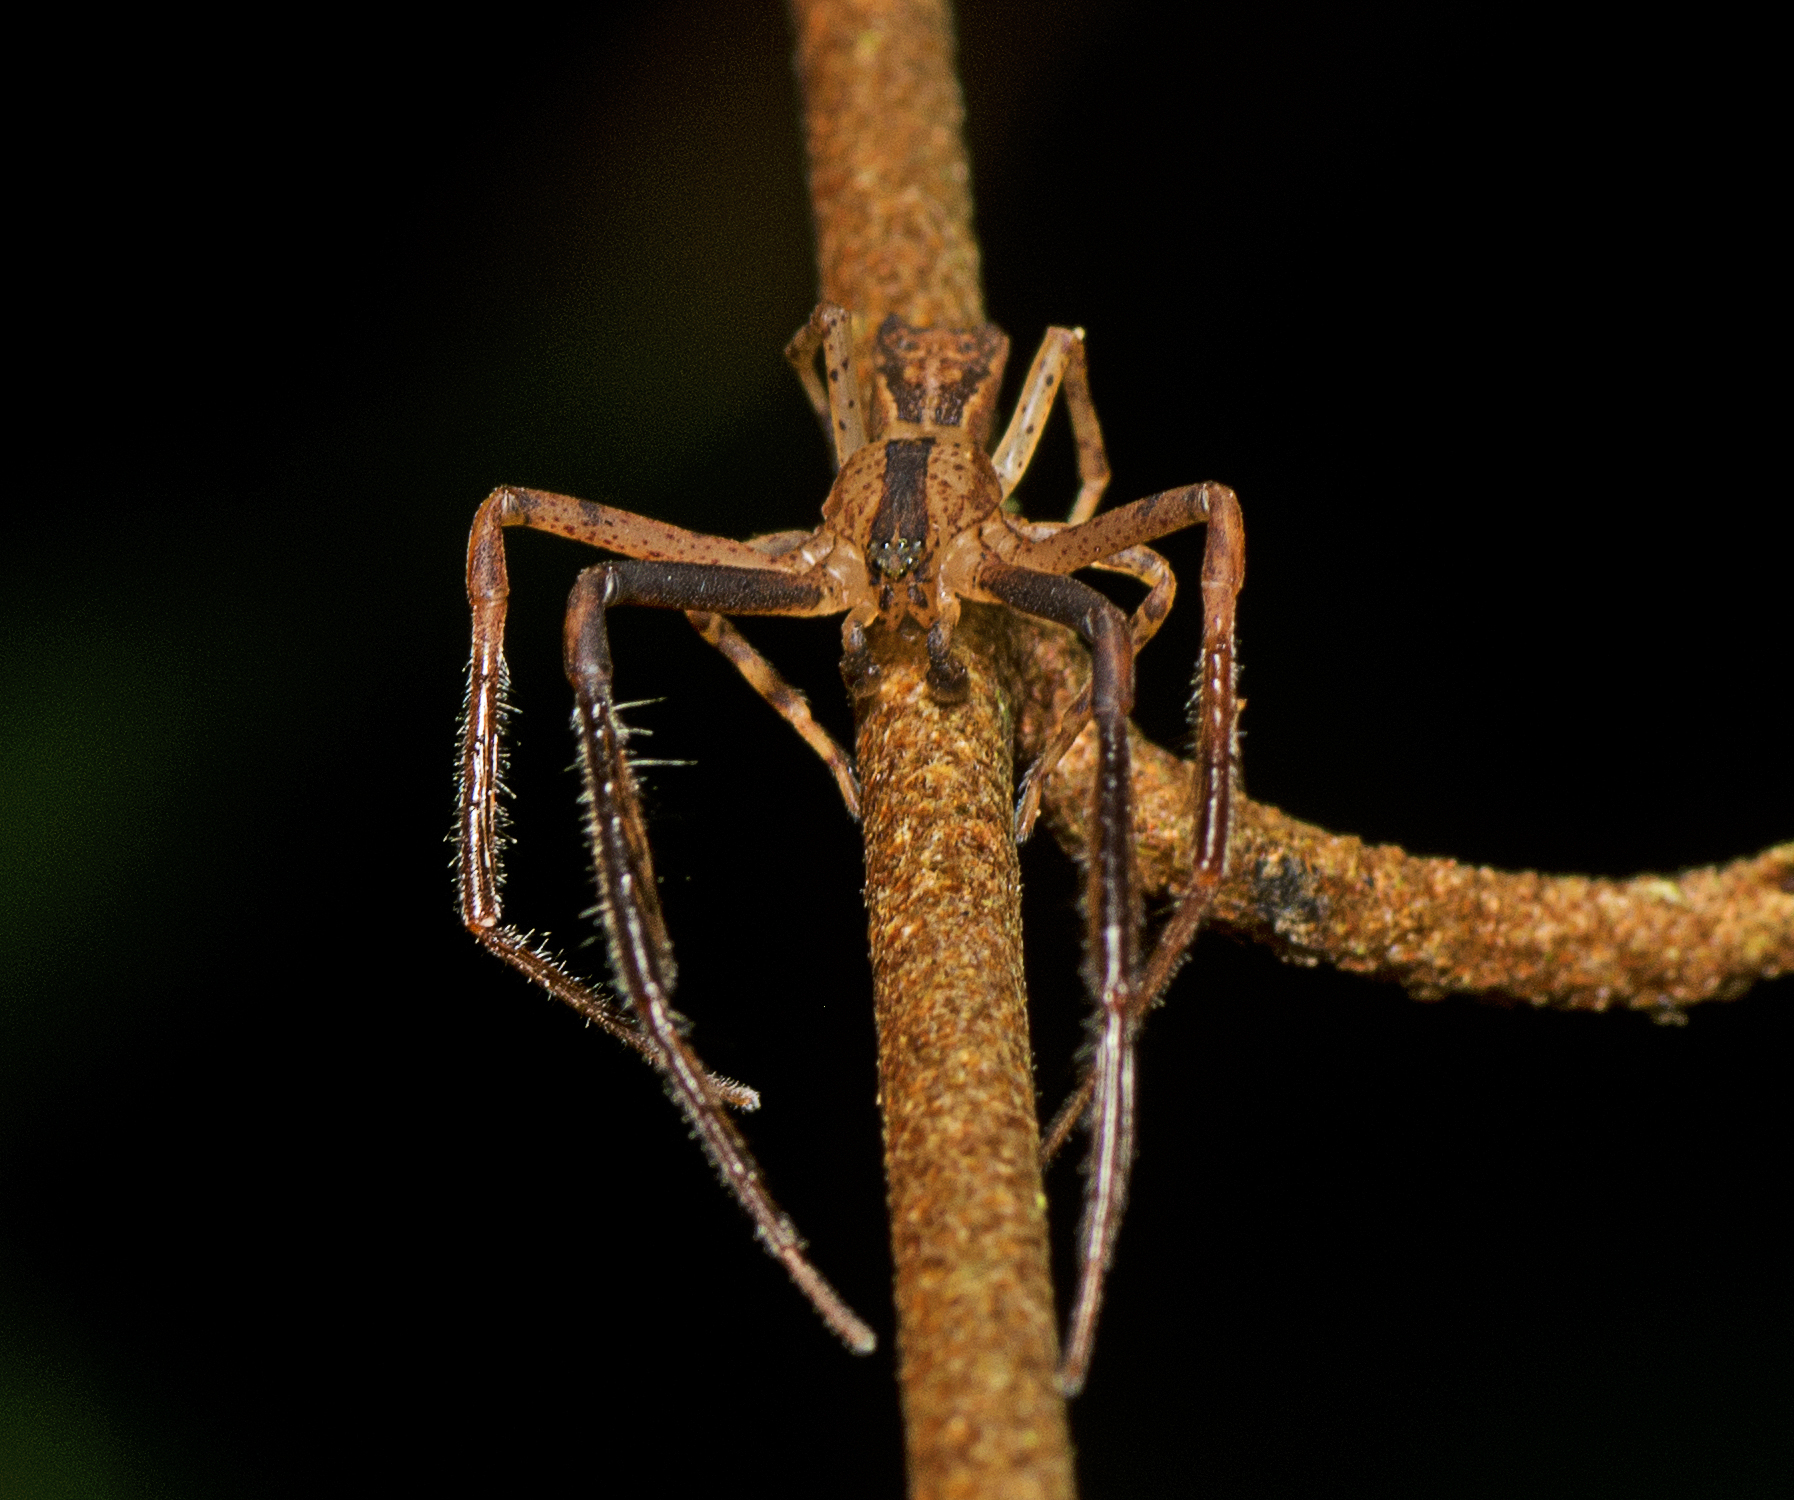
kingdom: Animalia
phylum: Arthropoda
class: Arachnida
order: Araneae
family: Thomisidae
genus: Sidymella
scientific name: Sidymella longipes
